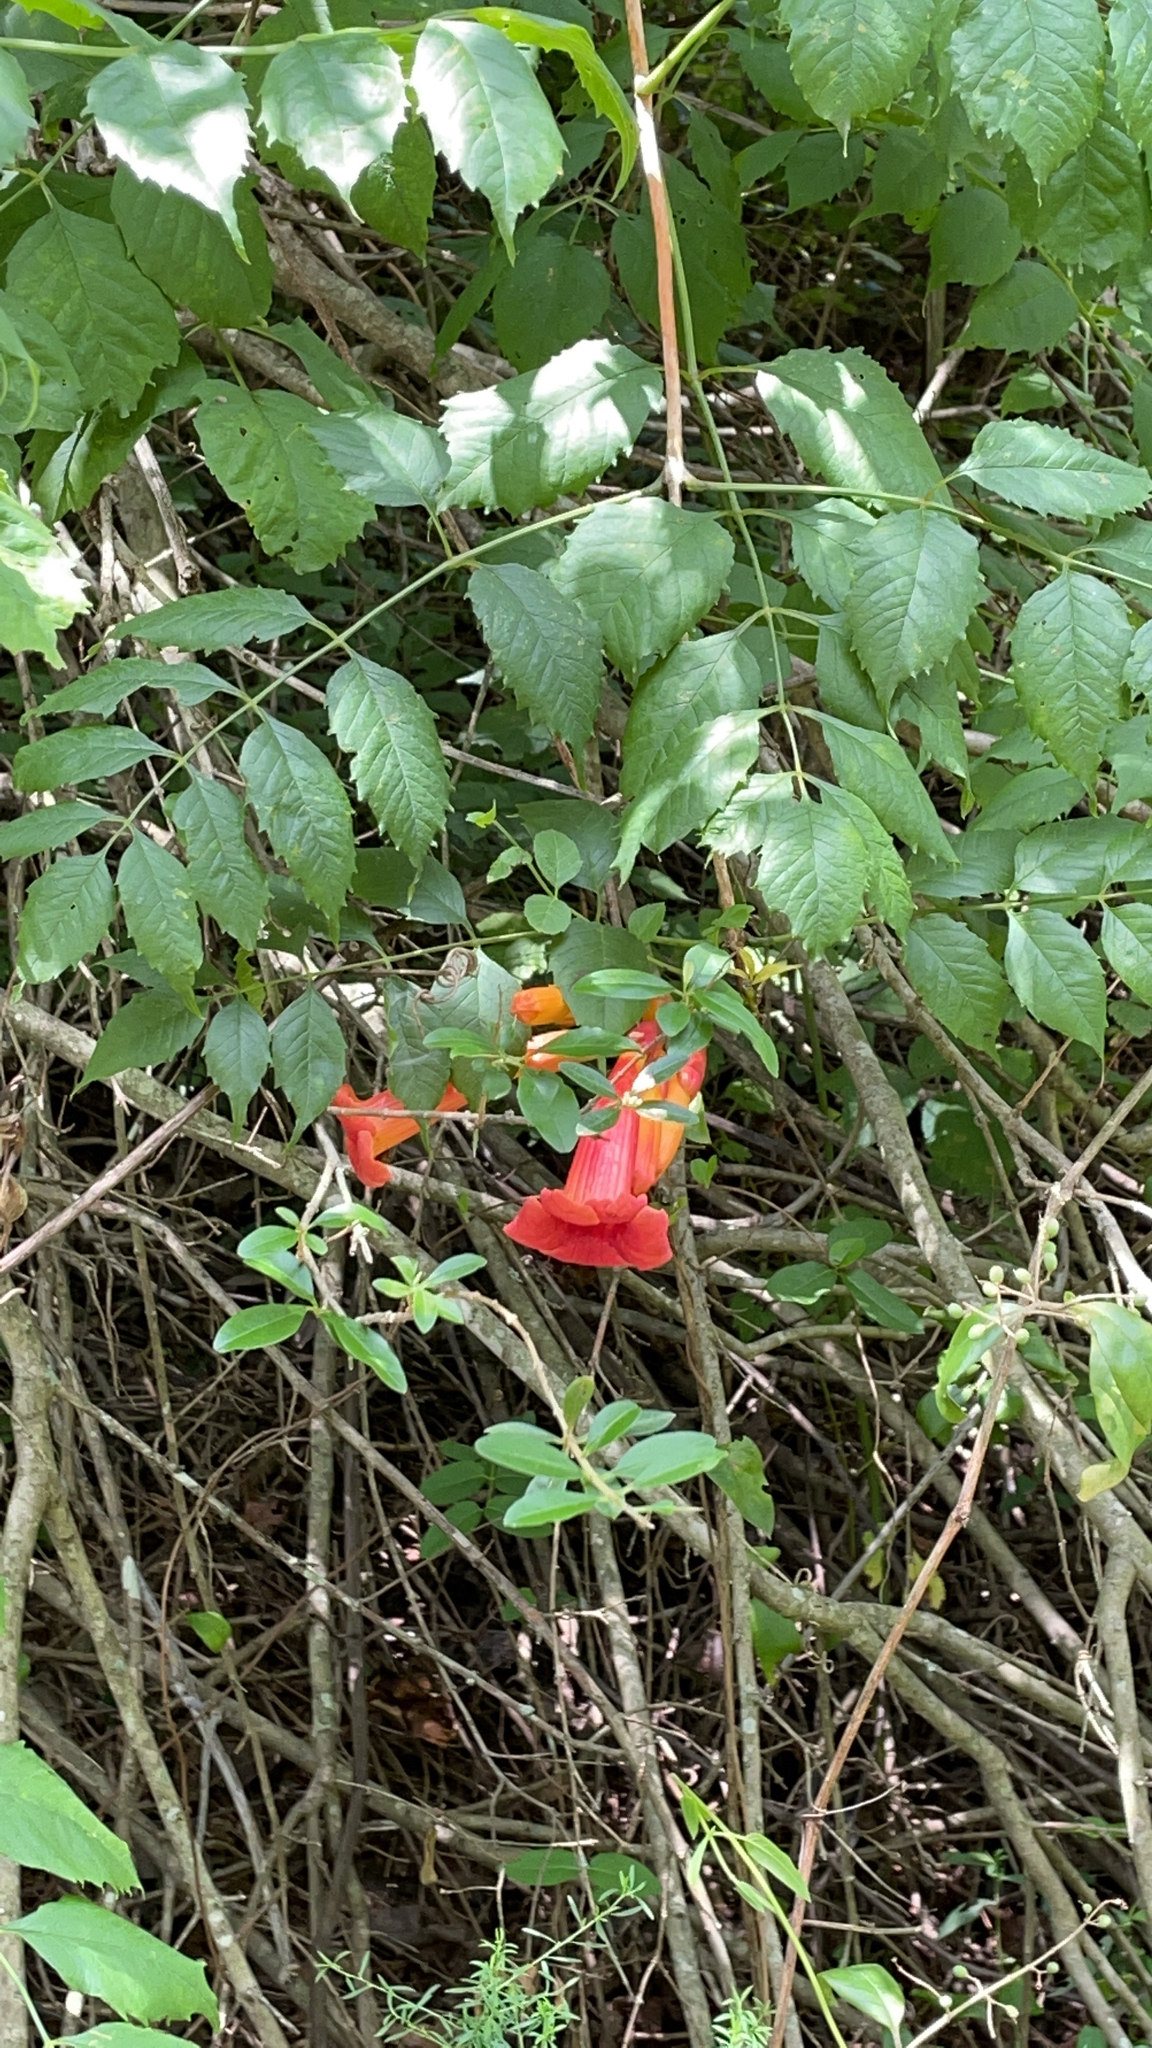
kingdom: Plantae
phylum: Tracheophyta
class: Magnoliopsida
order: Lamiales
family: Bignoniaceae
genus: Campsis
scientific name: Campsis radicans
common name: Trumpet-creeper
